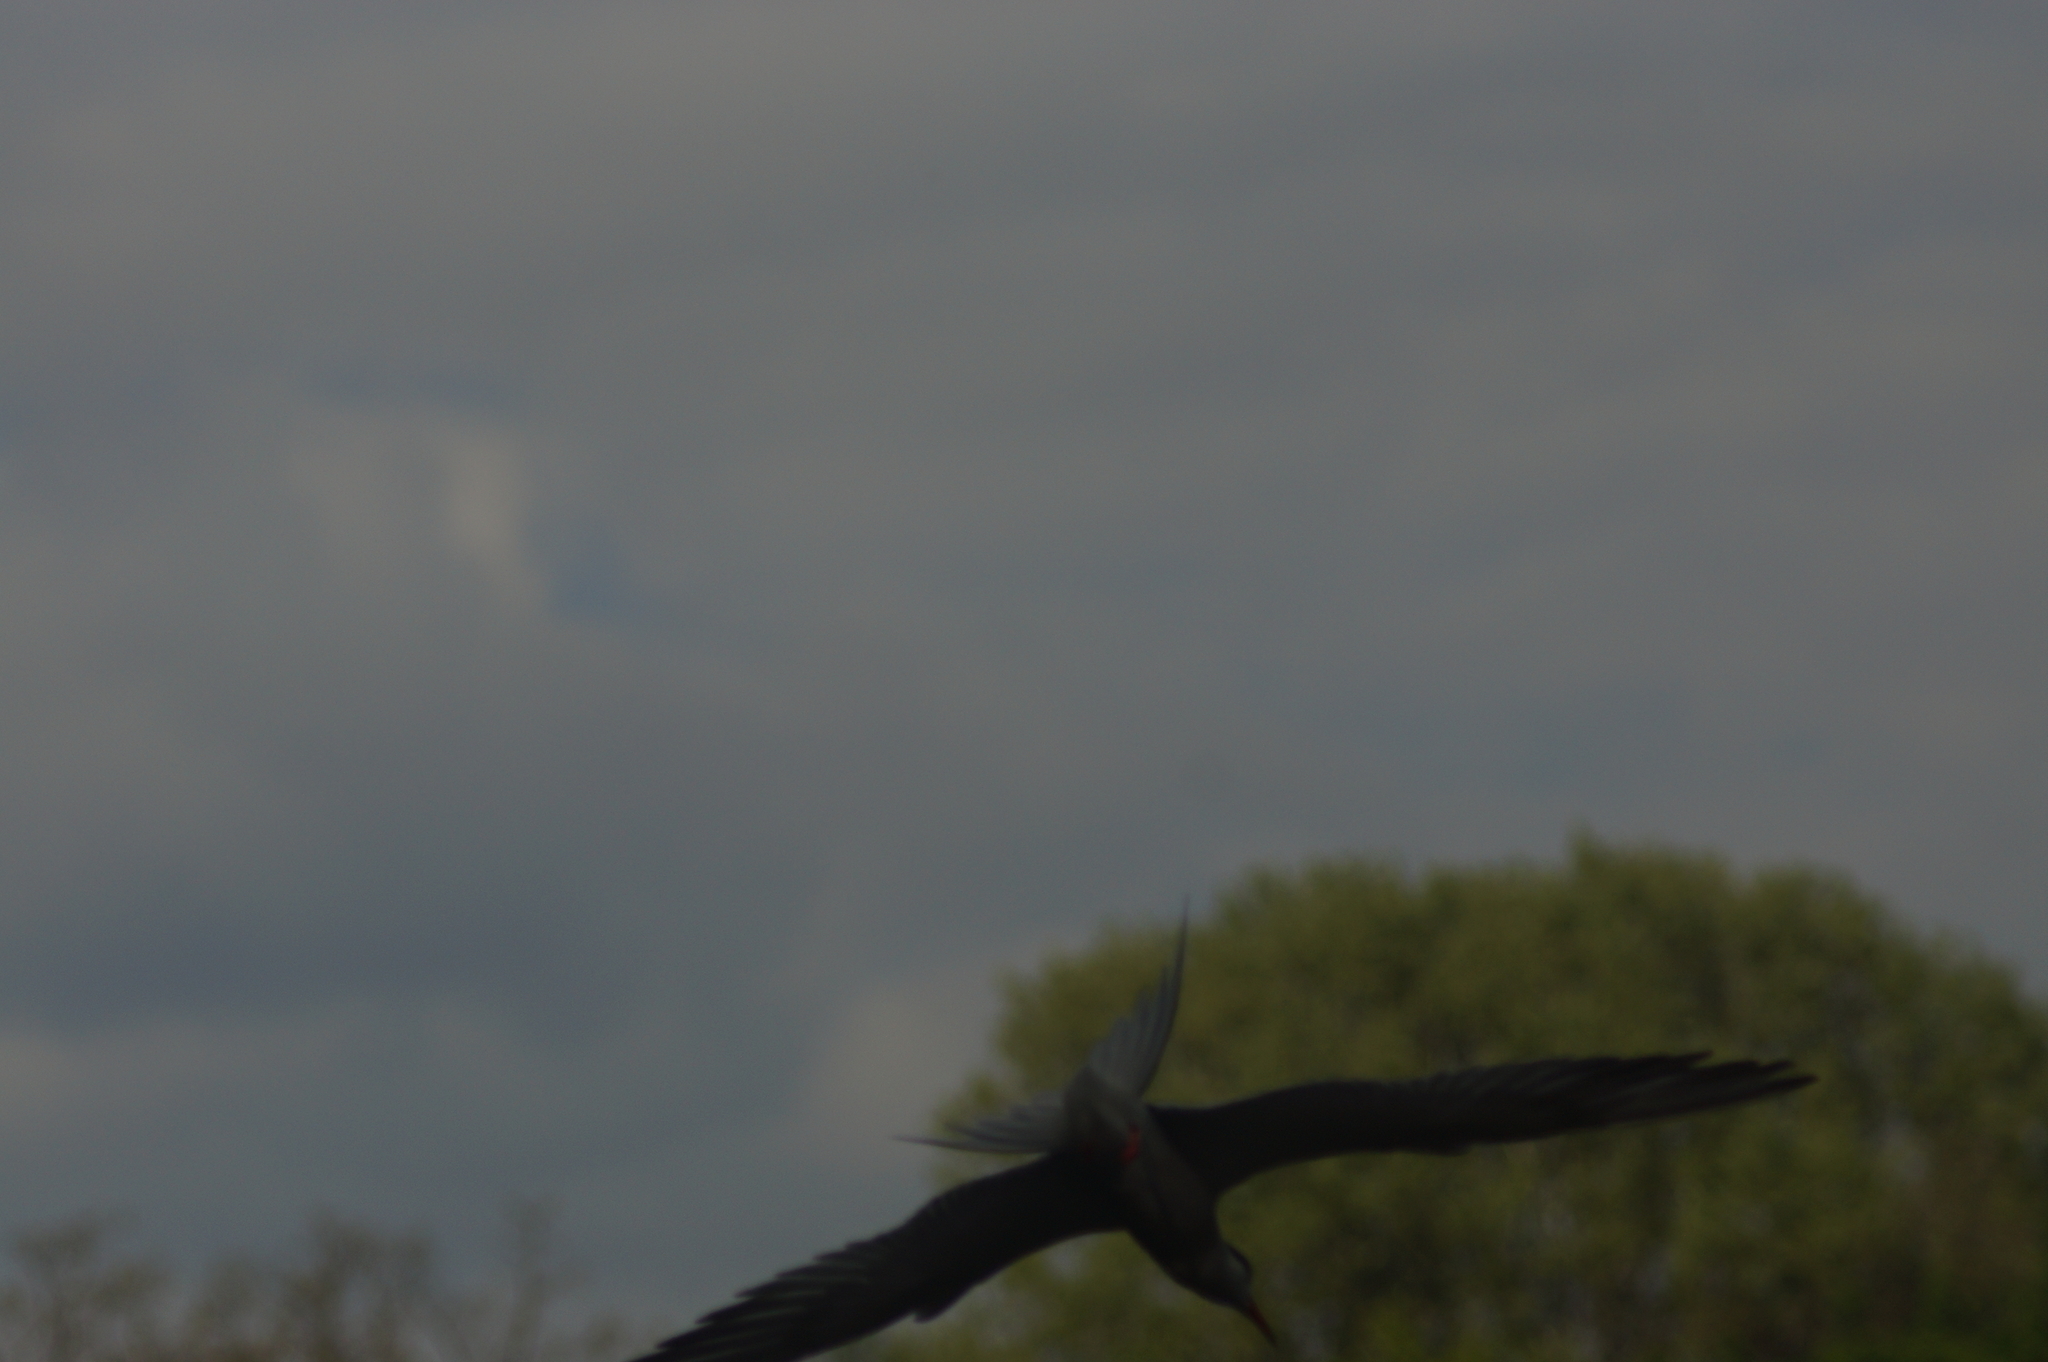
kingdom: Animalia
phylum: Chordata
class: Aves
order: Charadriiformes
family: Laridae
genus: Sterna
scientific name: Sterna hirundo
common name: Common tern
